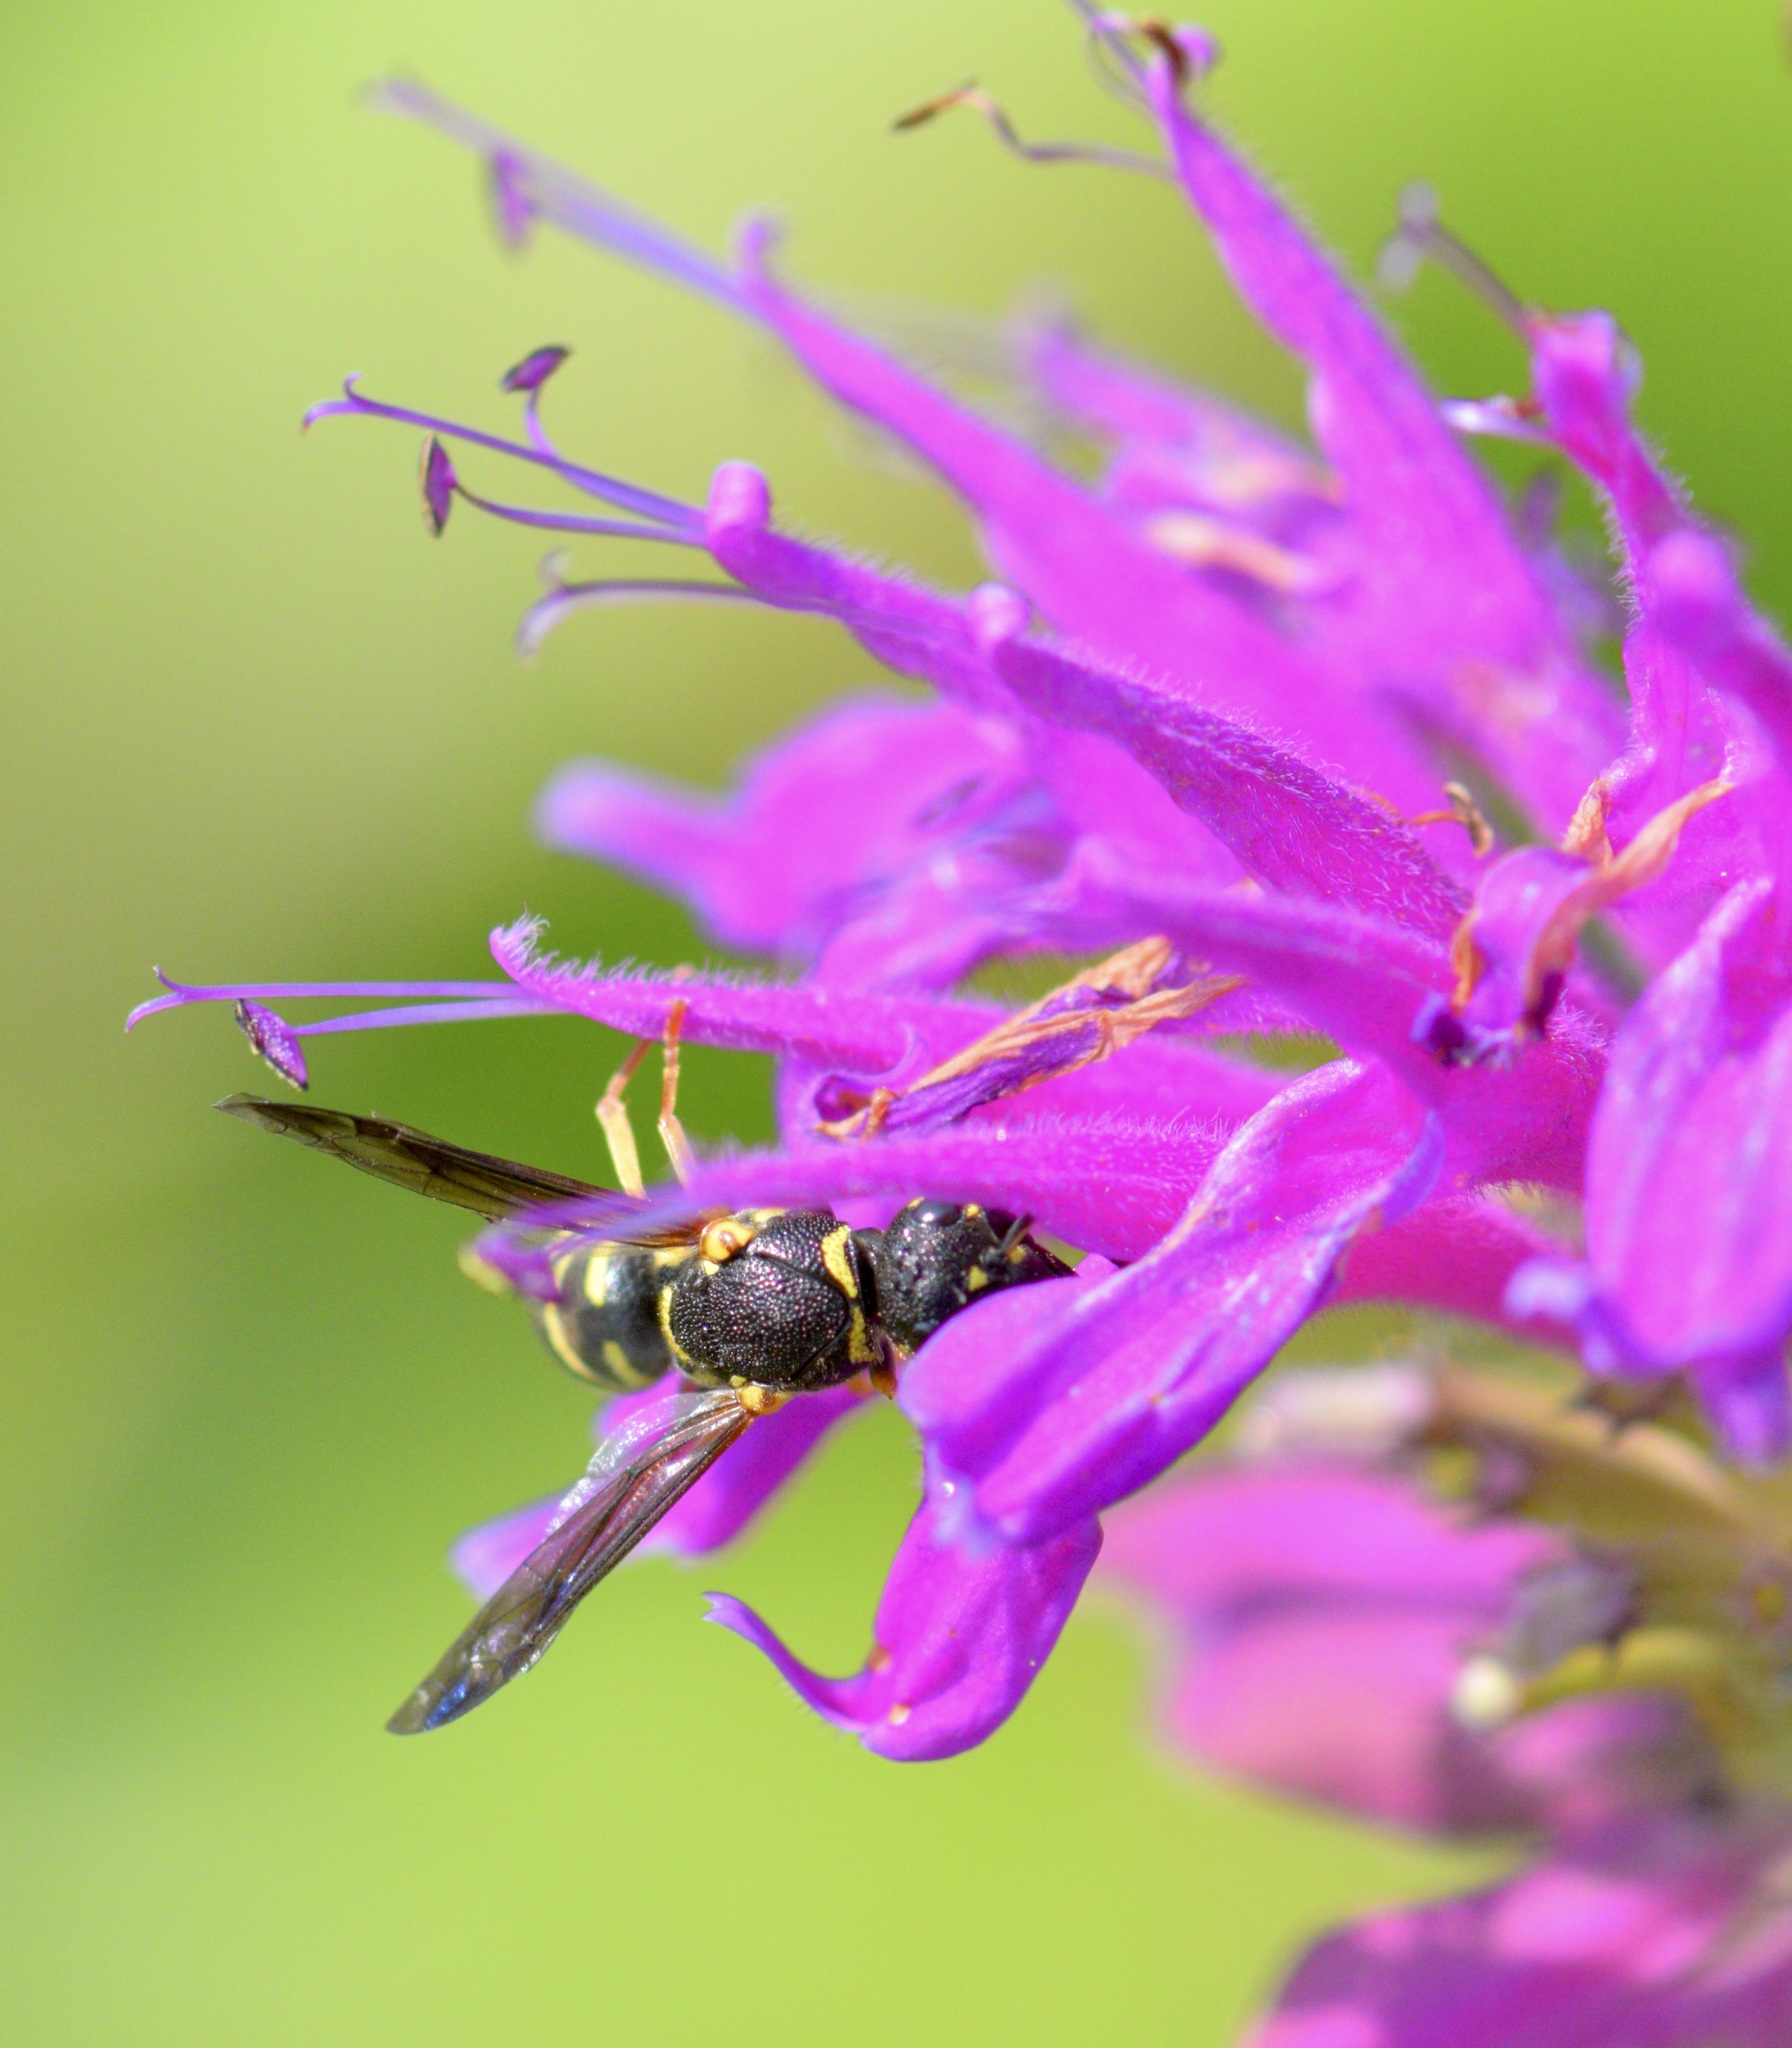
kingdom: Animalia
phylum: Arthropoda
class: Insecta
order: Hymenoptera
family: Eumenidae
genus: Parancistrocerus
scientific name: Parancistrocerus
